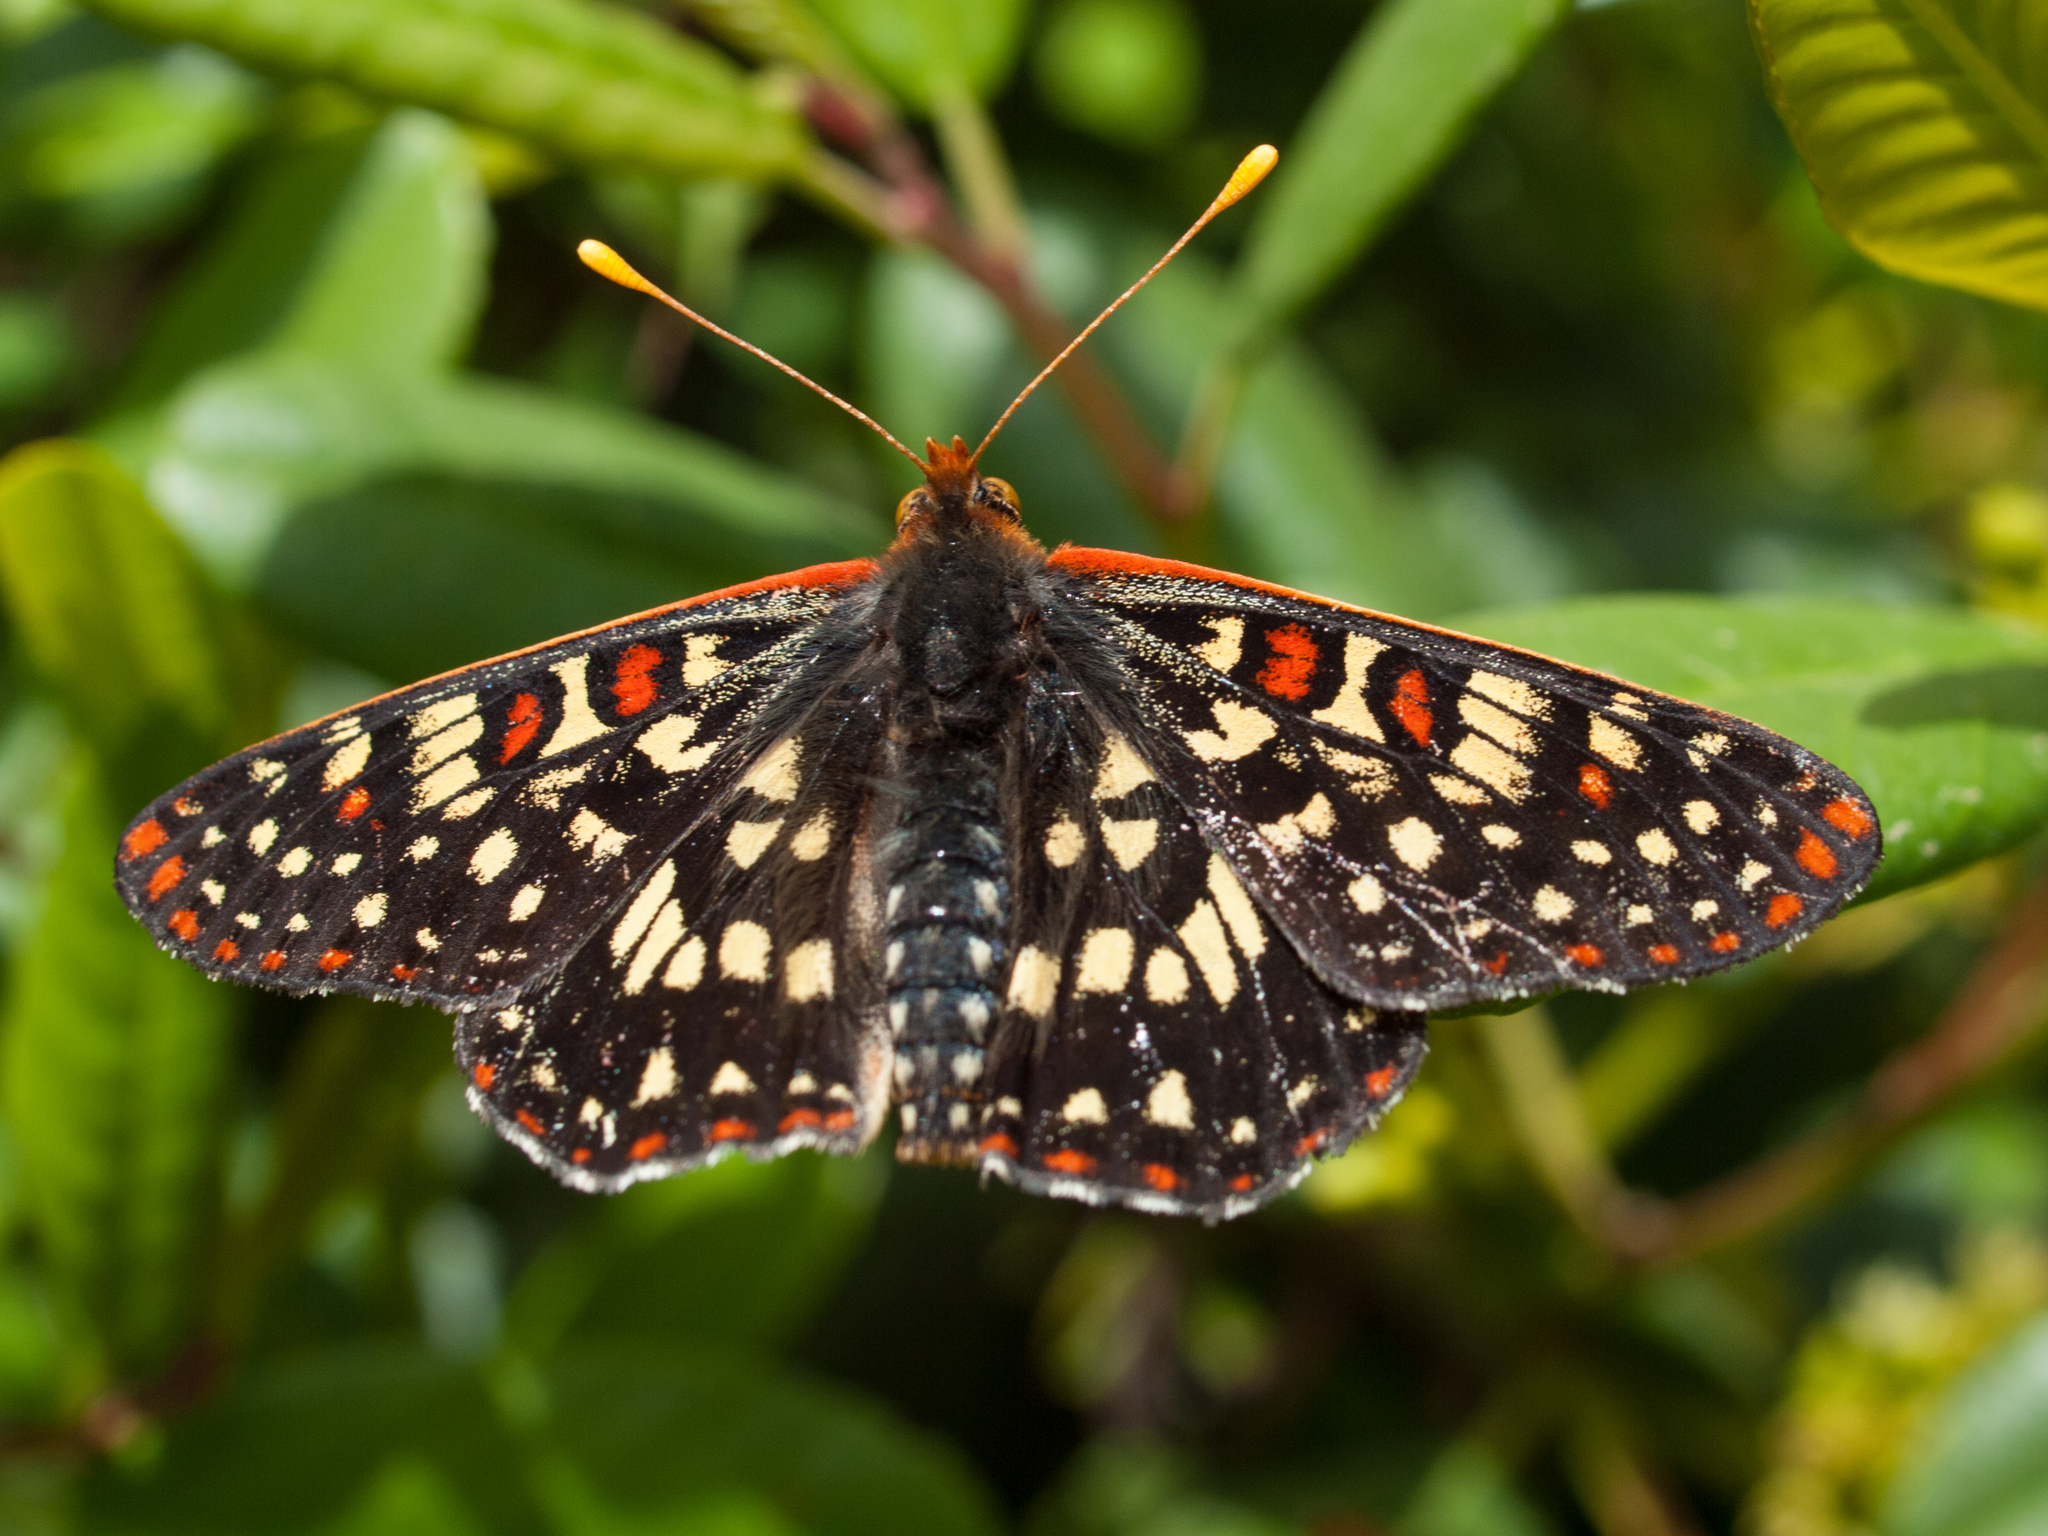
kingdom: Animalia
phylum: Arthropoda
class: Insecta
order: Lepidoptera
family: Nymphalidae
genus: Occidryas
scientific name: Occidryas chalcedona
